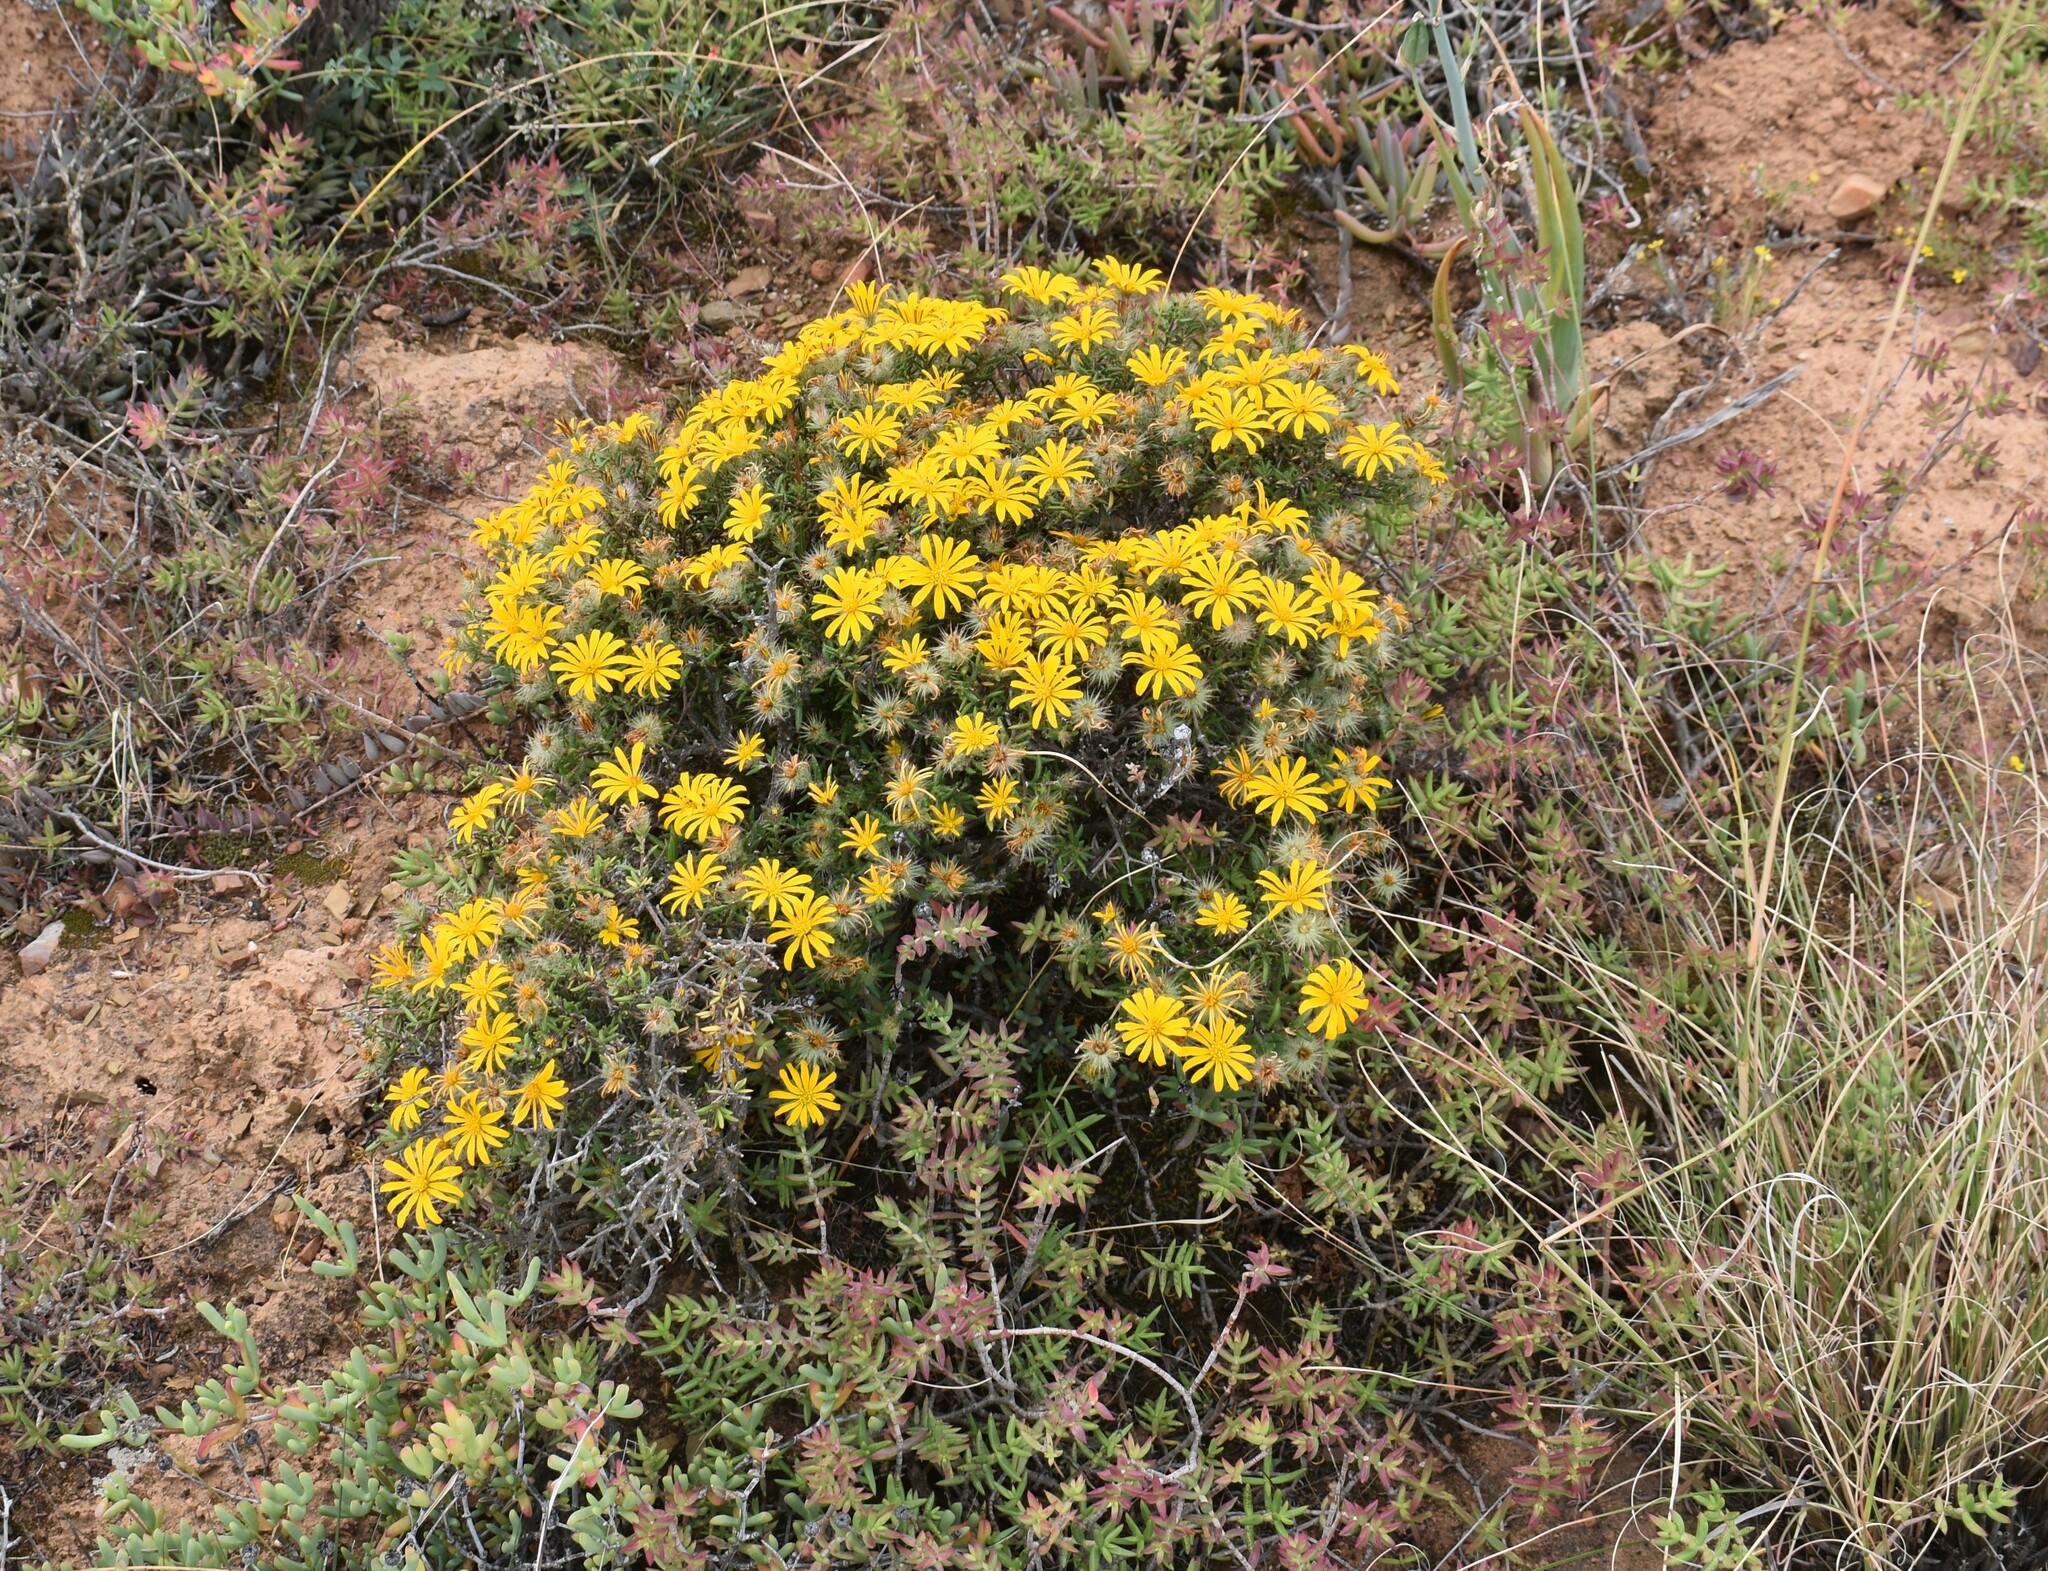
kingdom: Plantae
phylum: Tracheophyta
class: Magnoliopsida
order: Asterales
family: Asteraceae
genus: Hirpicium
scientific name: Hirpicium integrifolium
